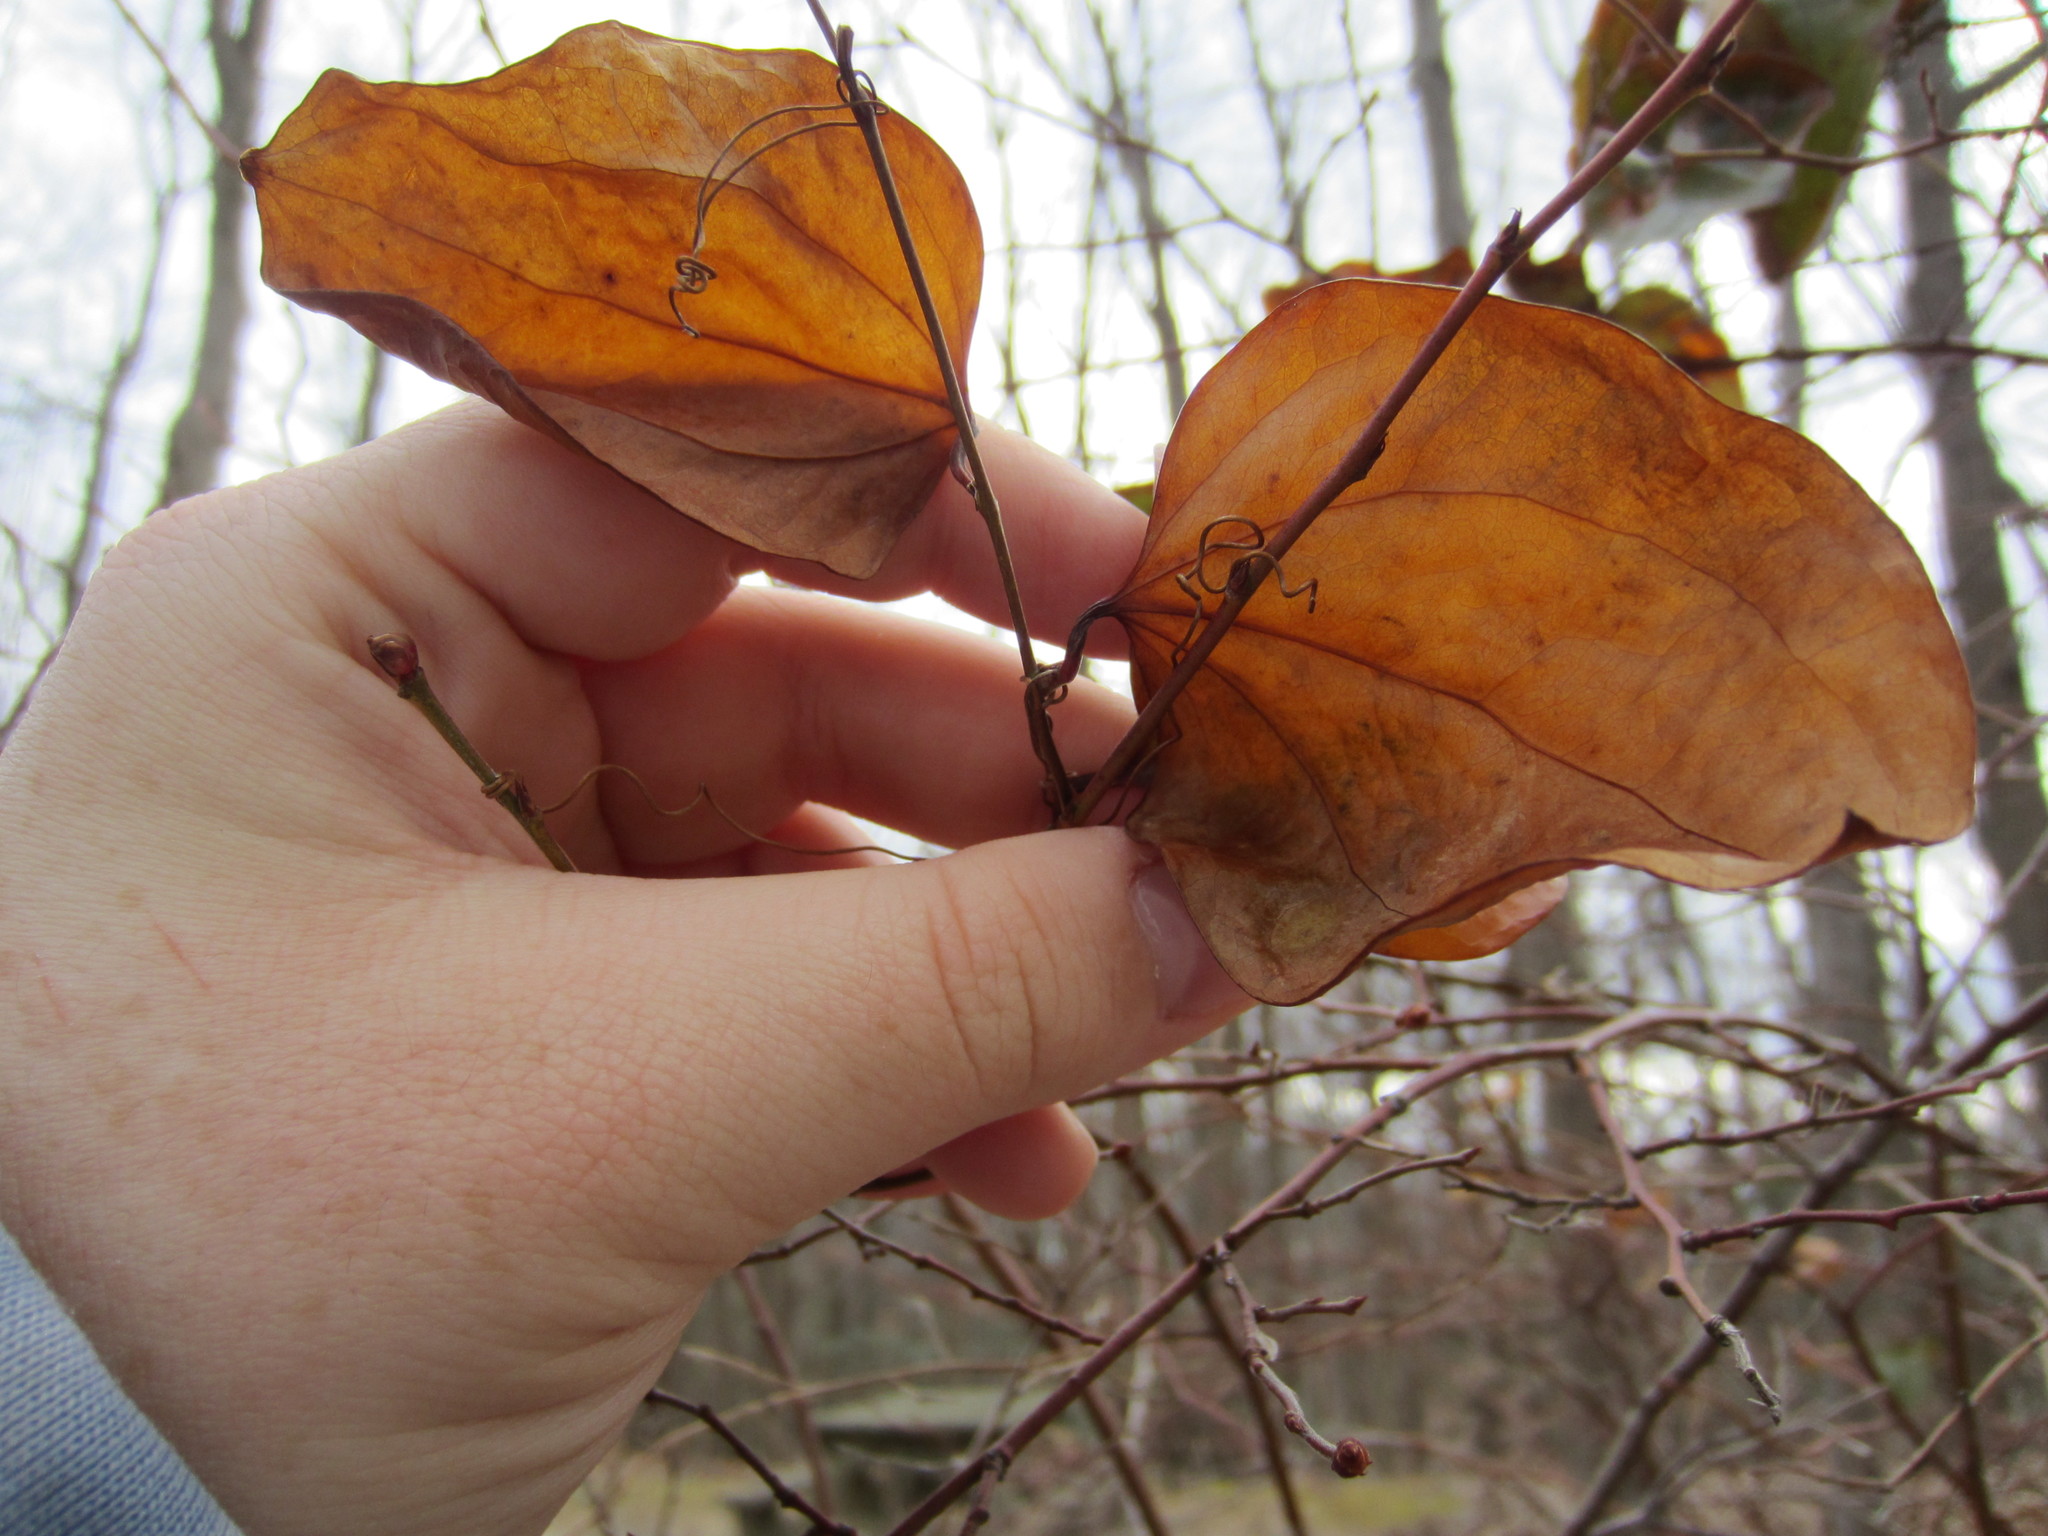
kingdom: Plantae
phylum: Tracheophyta
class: Liliopsida
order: Liliales
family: Smilacaceae
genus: Smilax
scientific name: Smilax glauca
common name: Cat greenbrier
